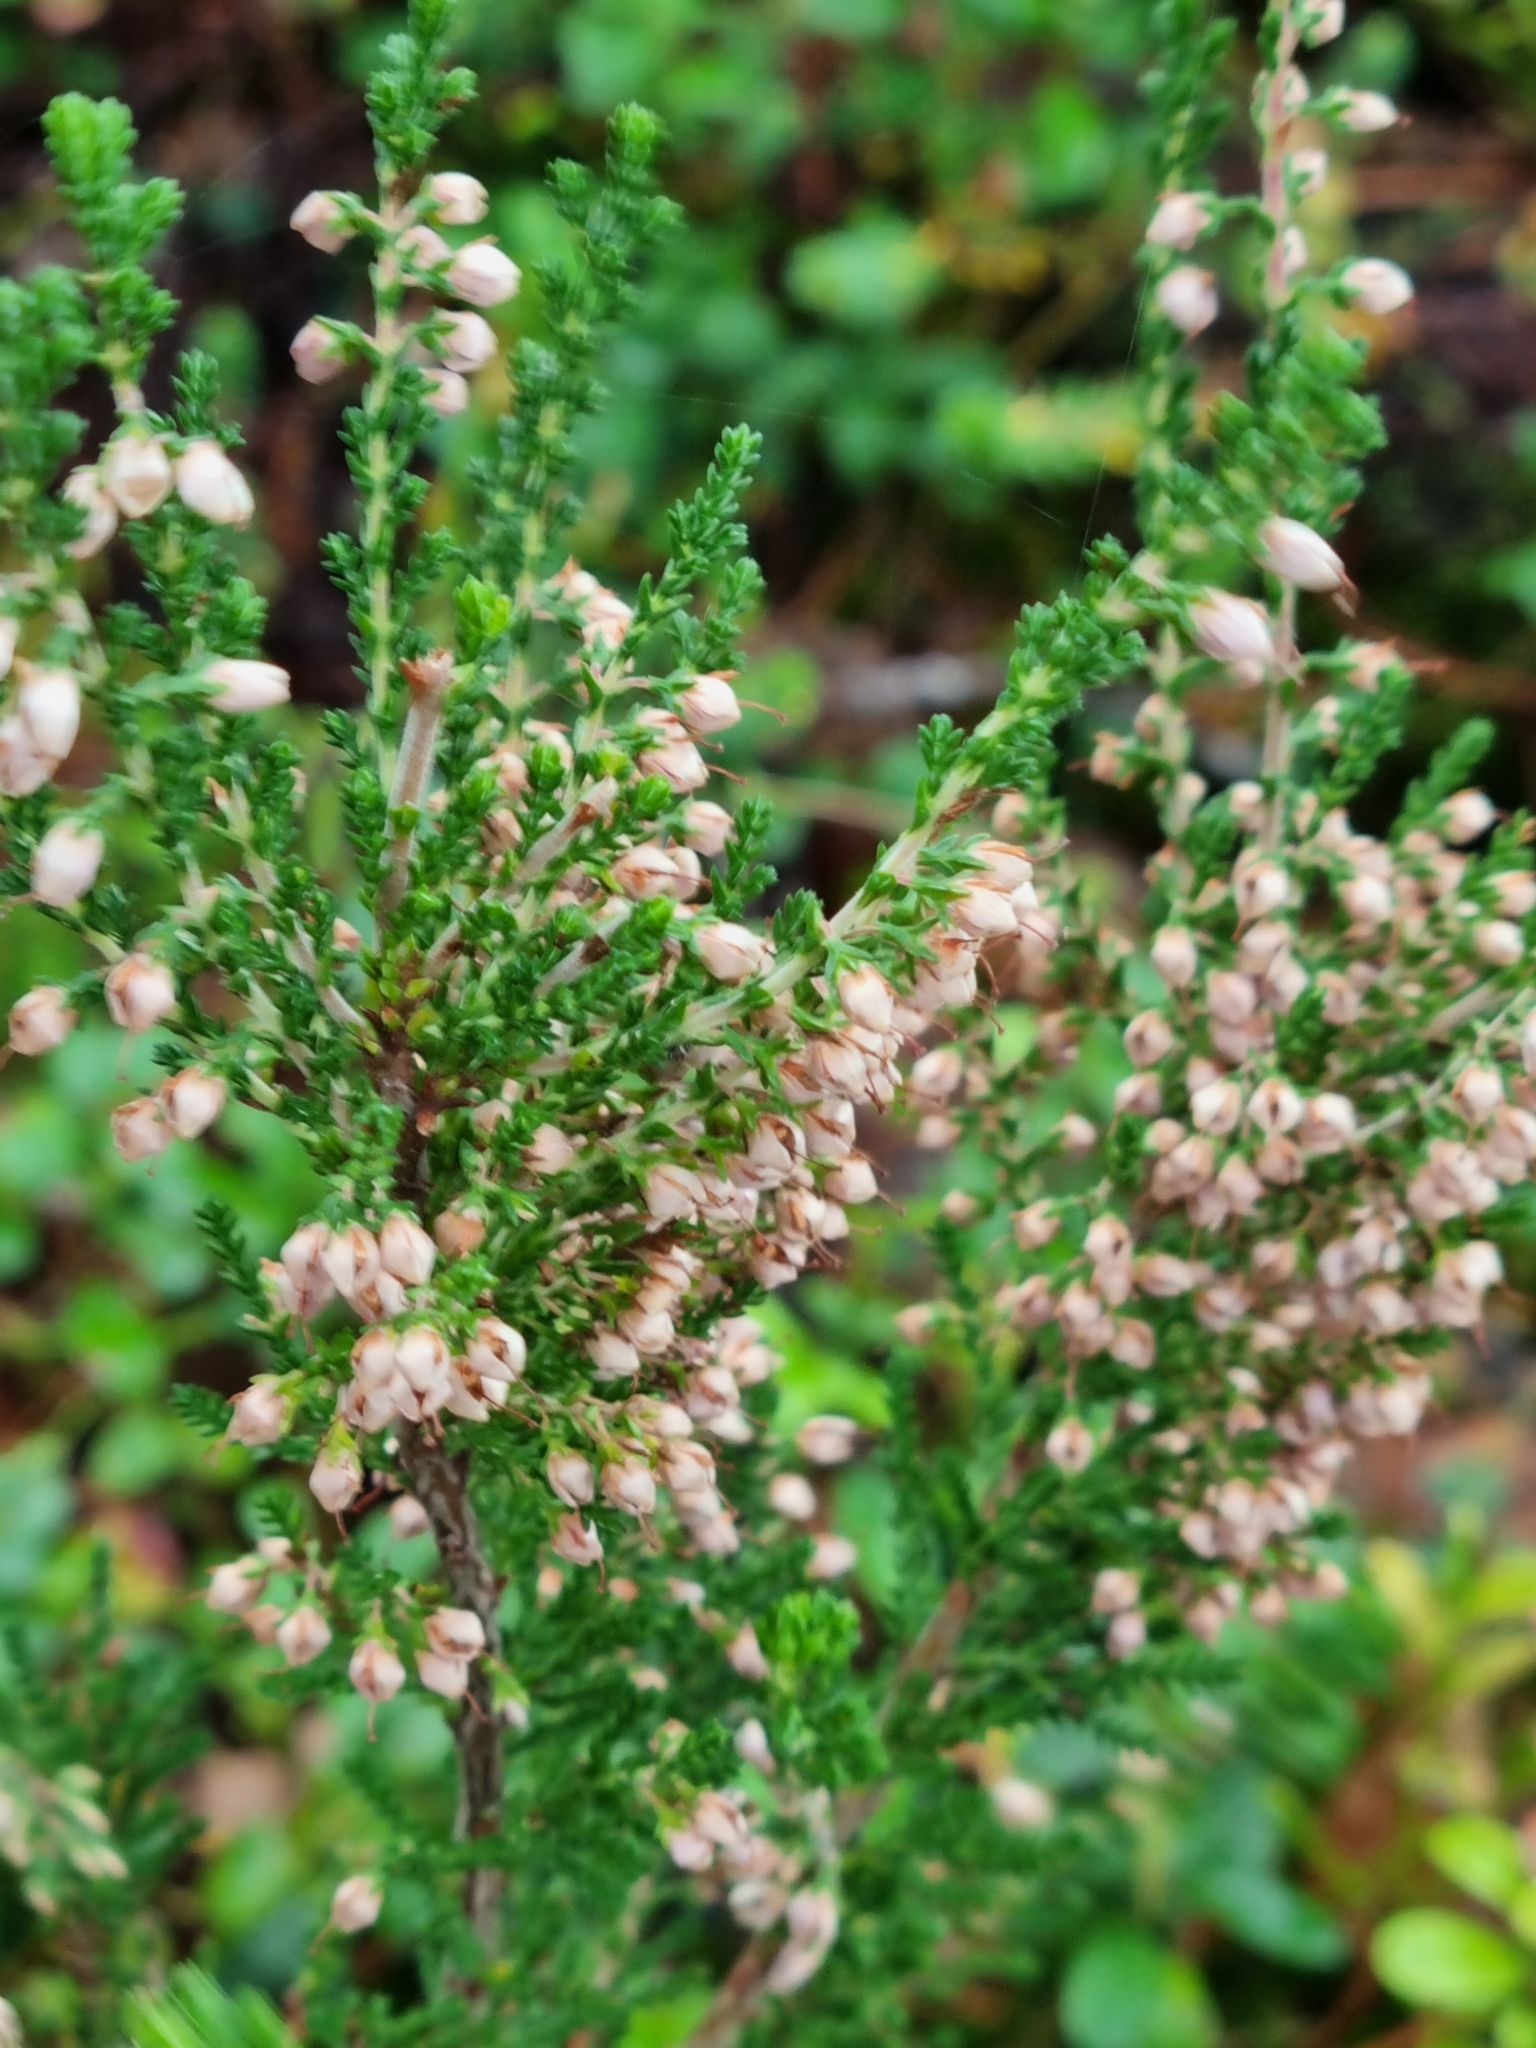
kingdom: Plantae
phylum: Tracheophyta
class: Magnoliopsida
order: Ericales
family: Ericaceae
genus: Calluna
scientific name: Calluna vulgaris
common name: Heather
